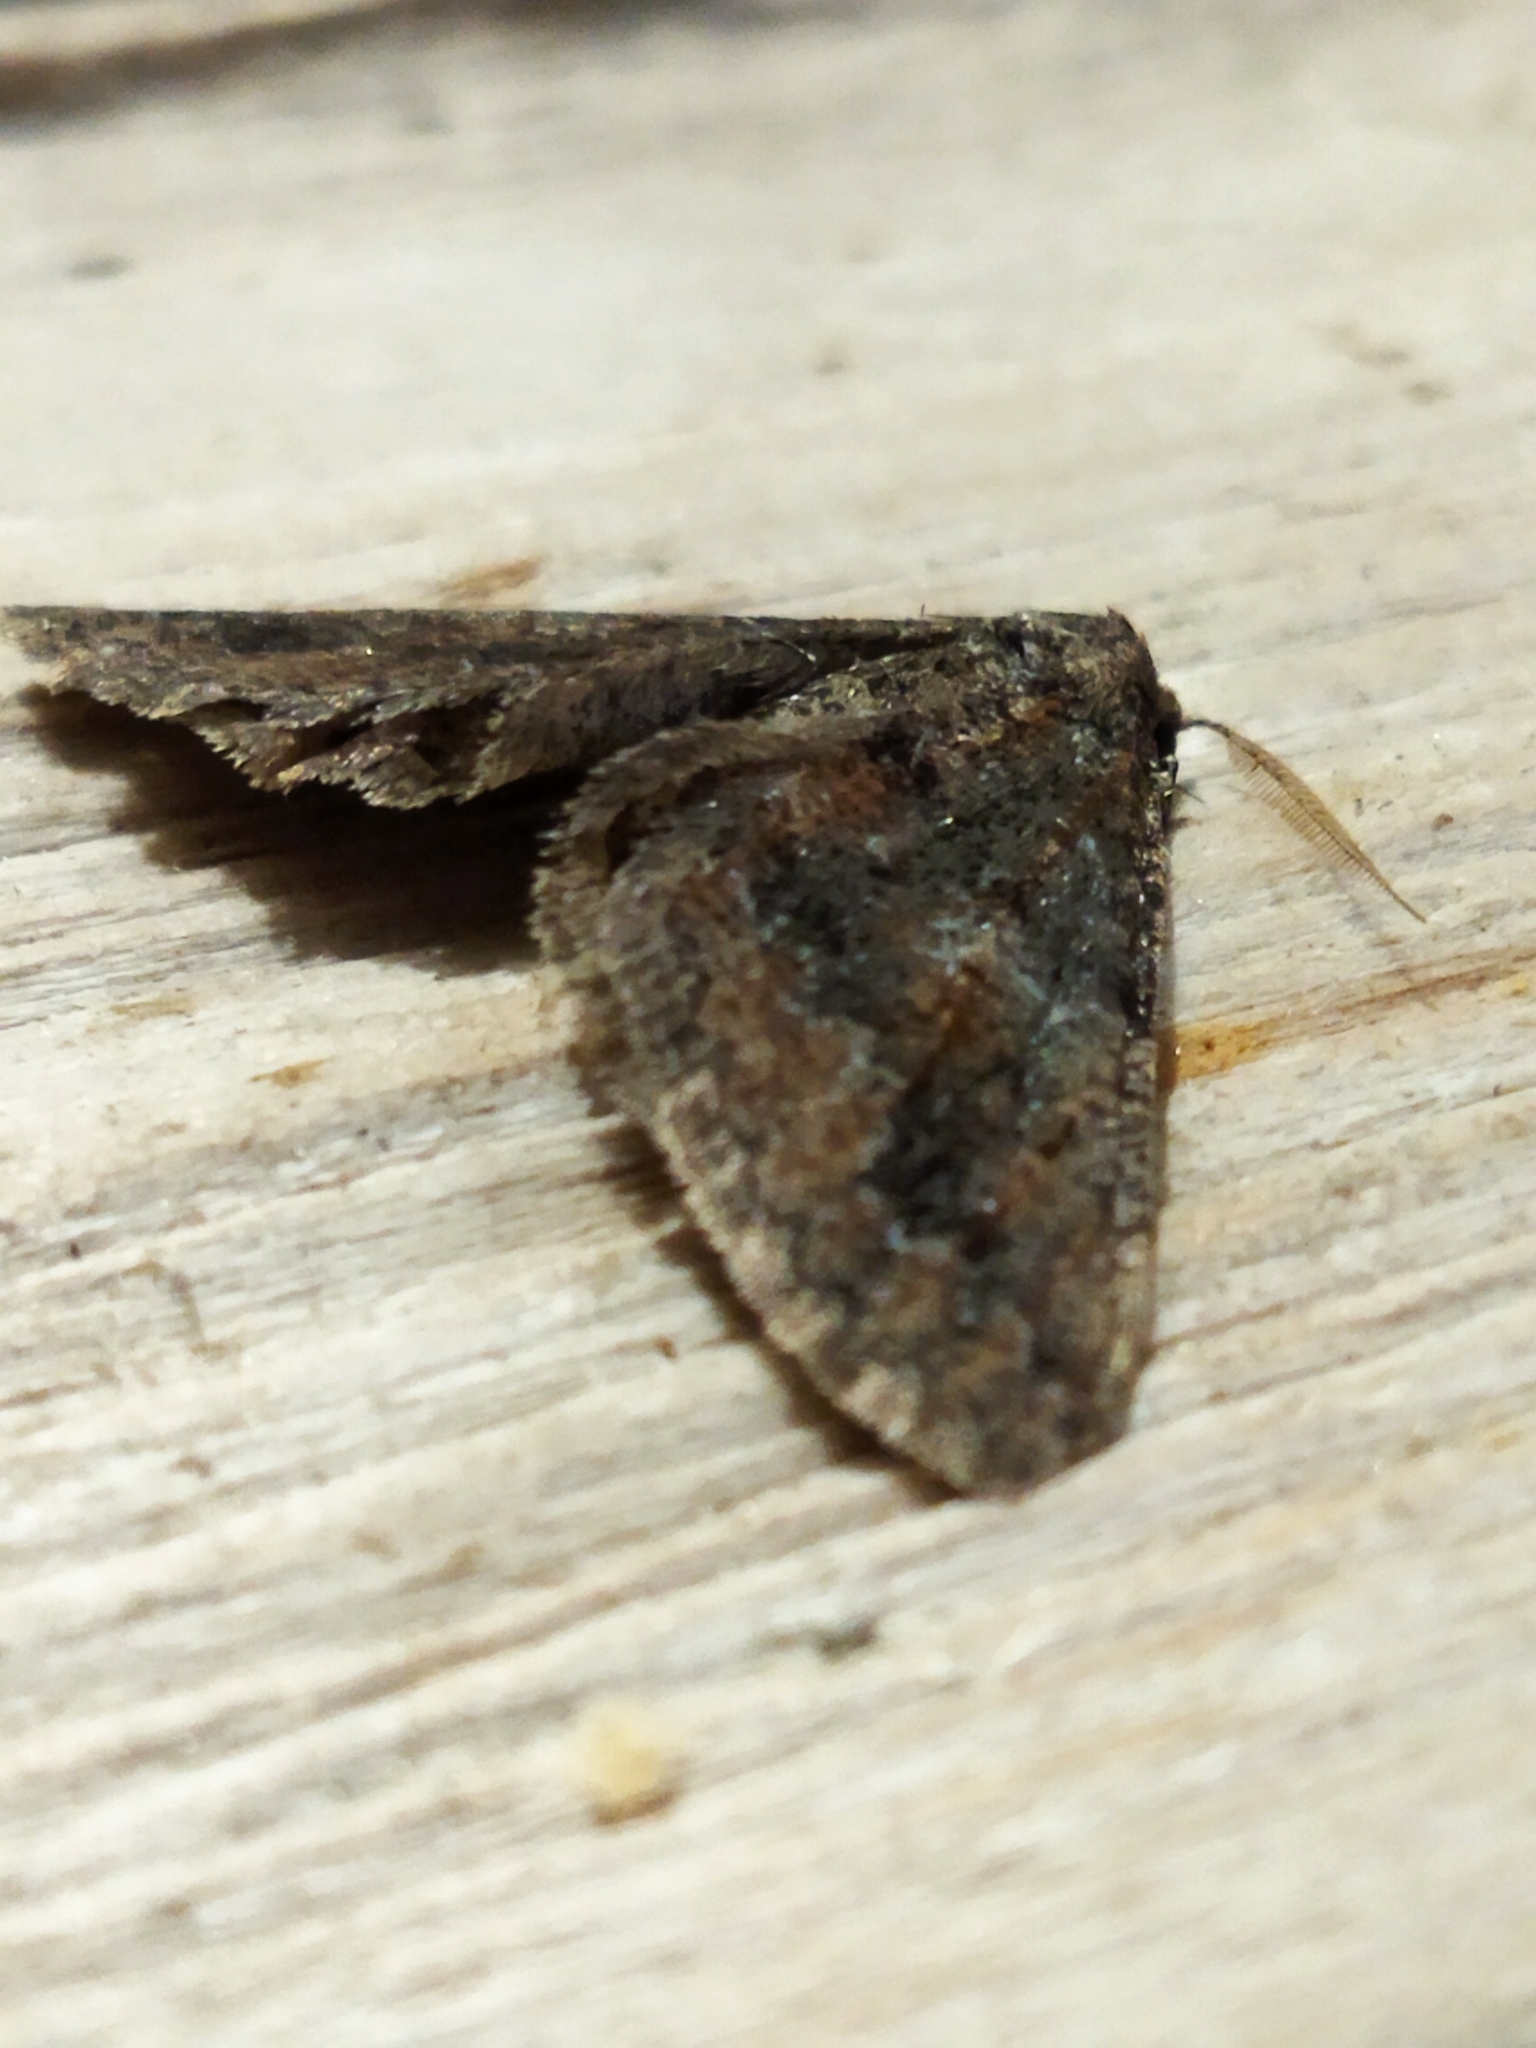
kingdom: Animalia
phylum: Arthropoda
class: Insecta
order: Lepidoptera
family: Geometridae
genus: Agriopis
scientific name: Agriopis bajaria
